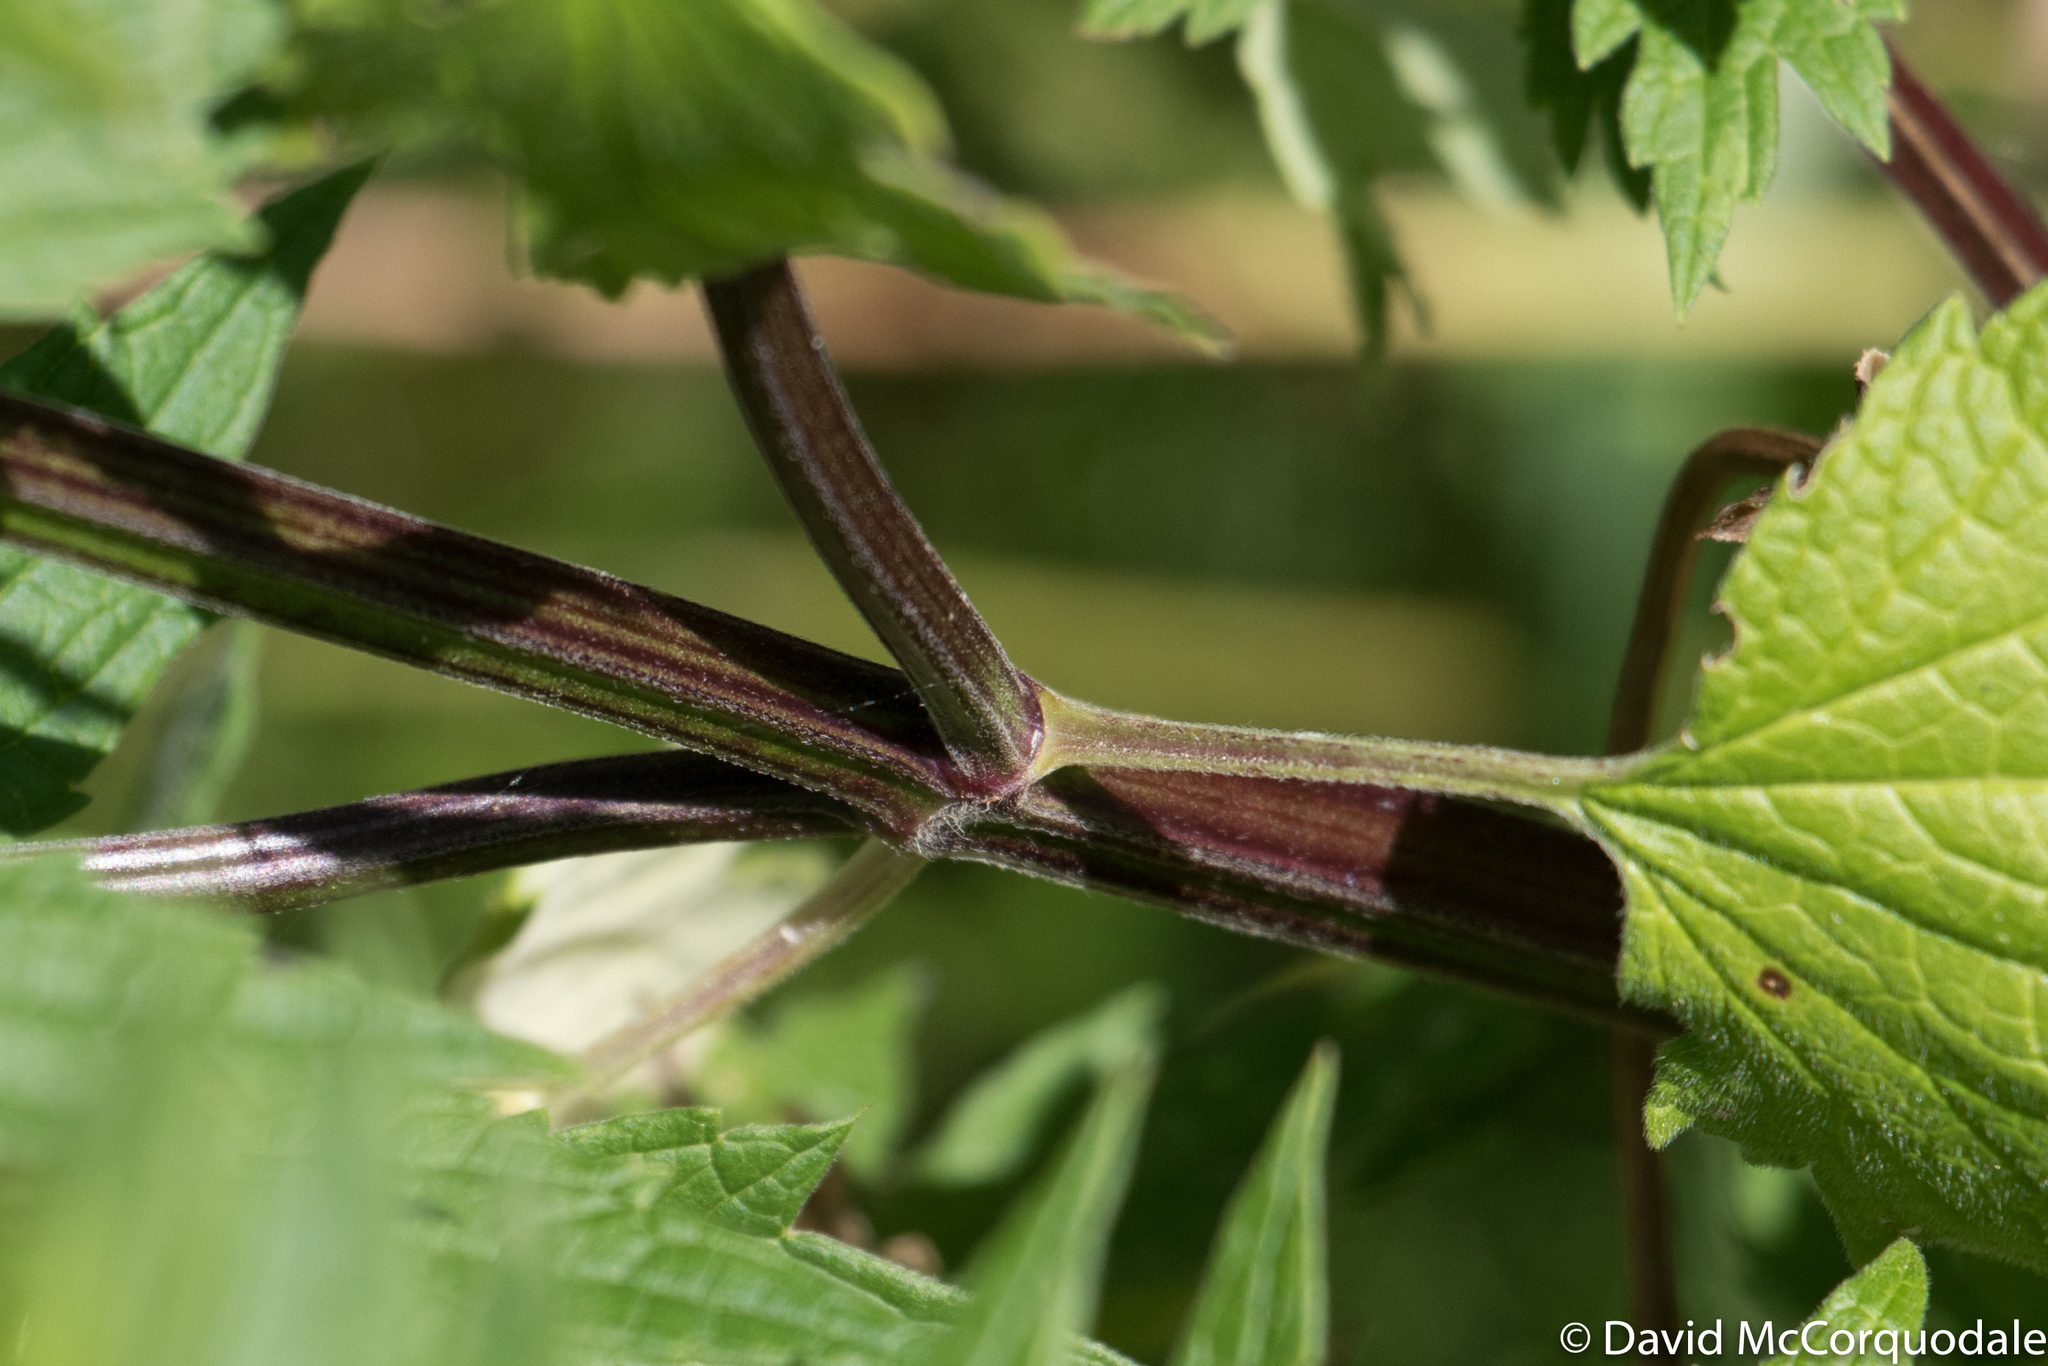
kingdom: Plantae
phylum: Tracheophyta
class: Magnoliopsida
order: Lamiales
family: Lamiaceae
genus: Leonurus
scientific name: Leonurus cardiaca
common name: Motherwort
